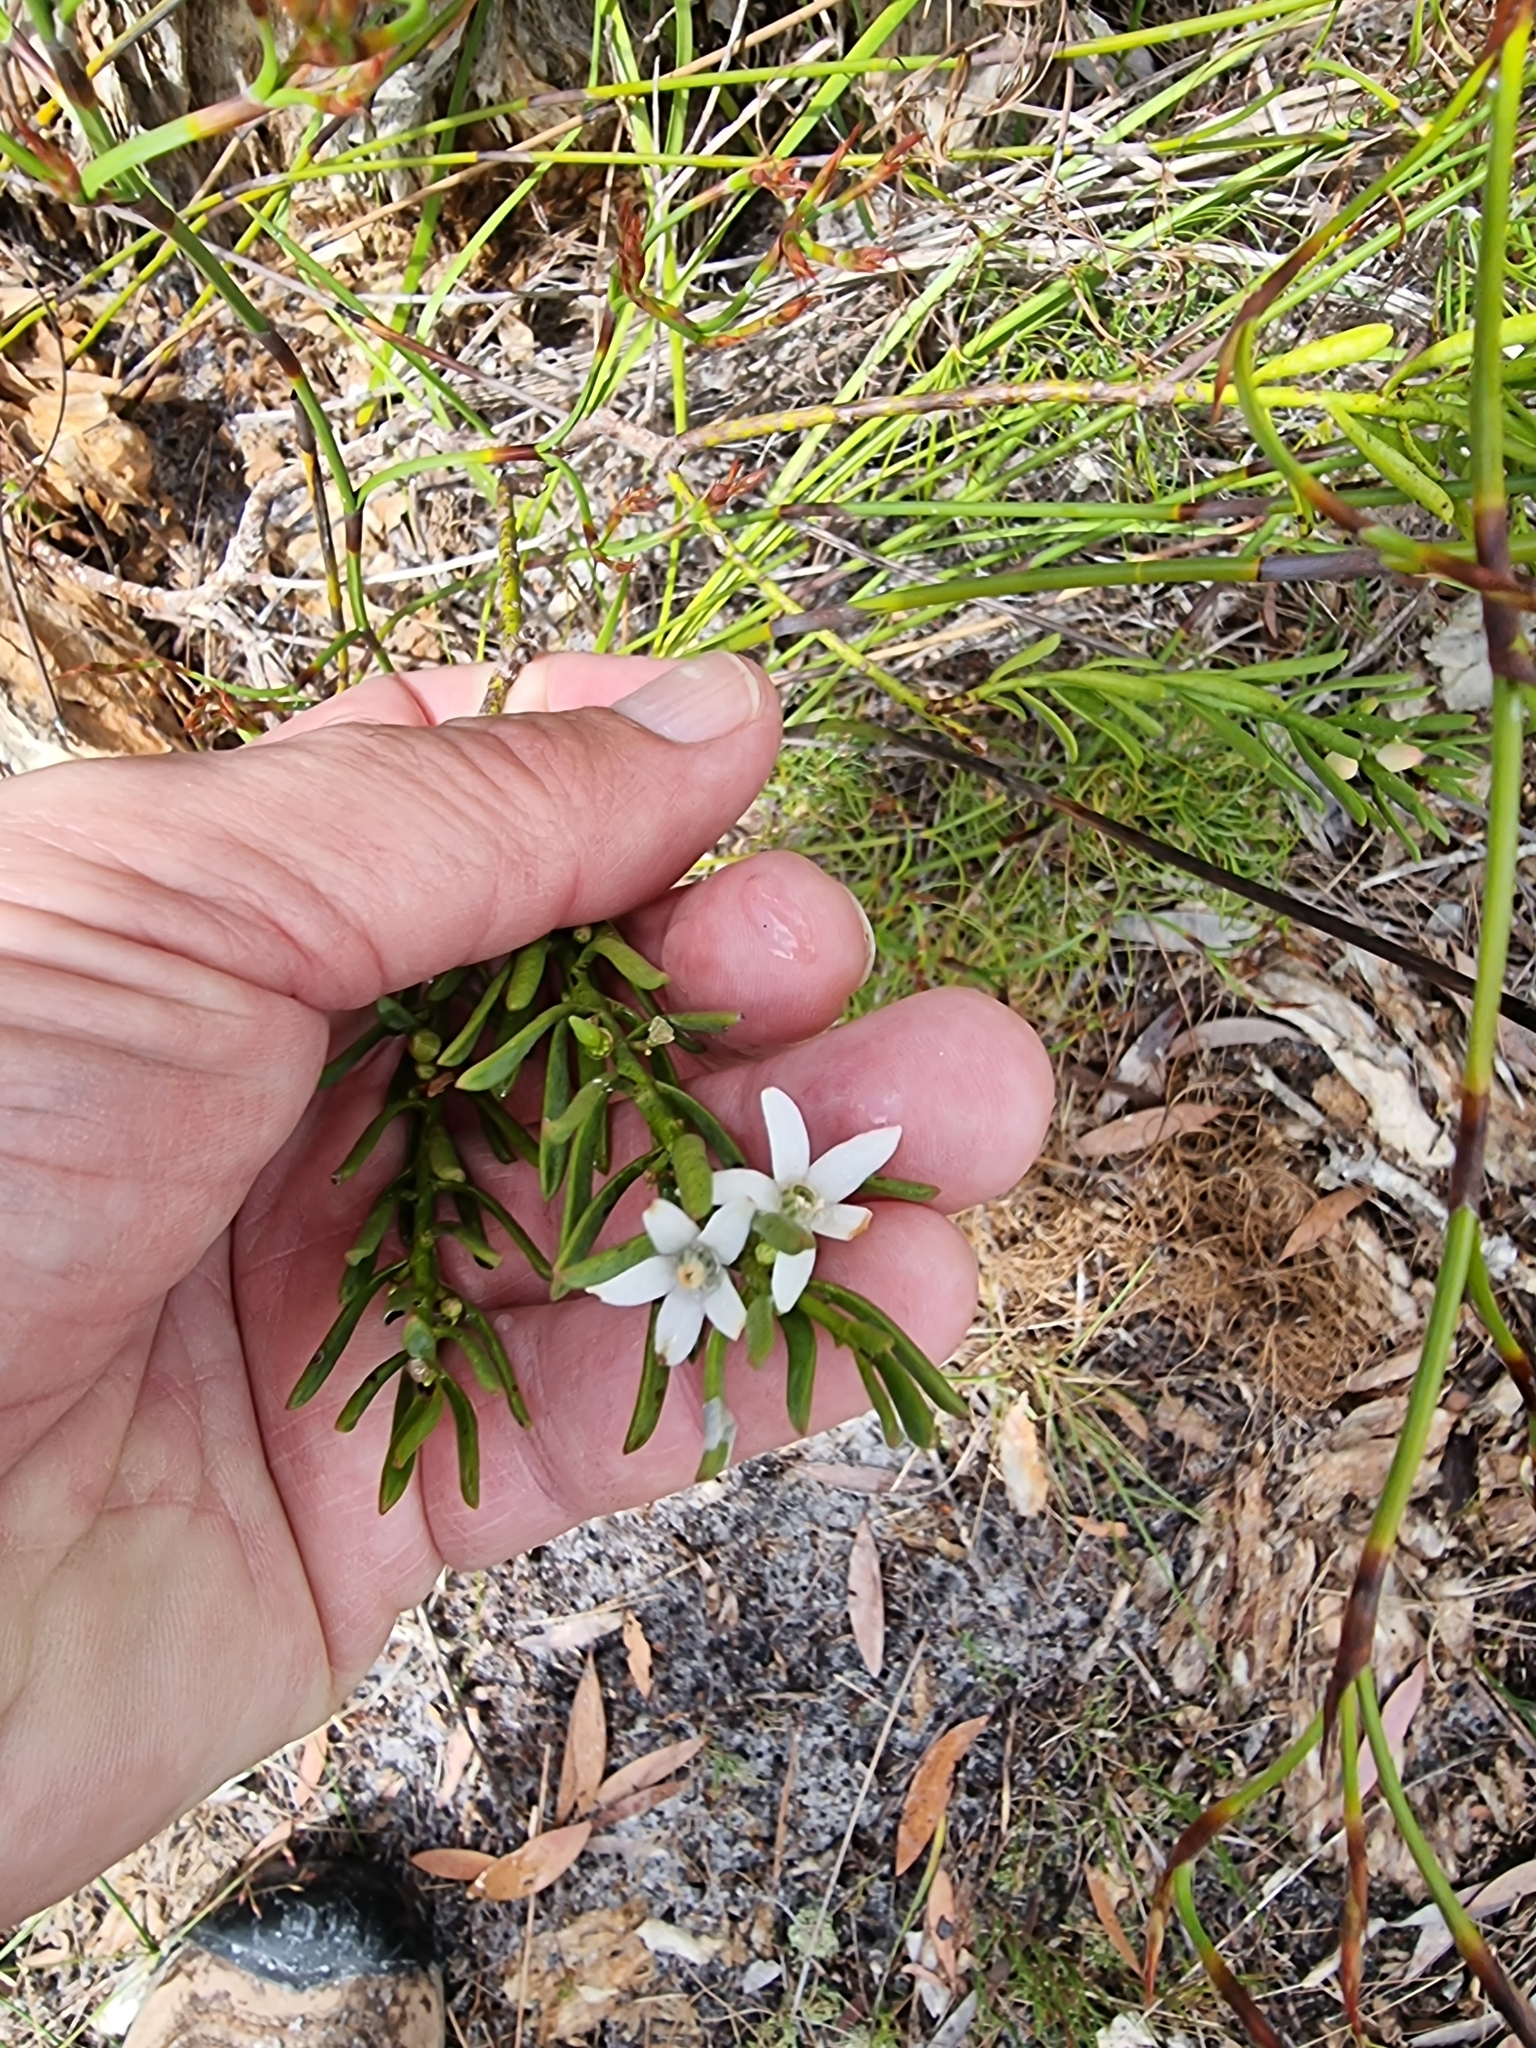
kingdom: Plantae
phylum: Tracheophyta
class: Magnoliopsida
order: Sapindales
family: Rutaceae
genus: Philotheca
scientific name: Philotheca queenslandica
